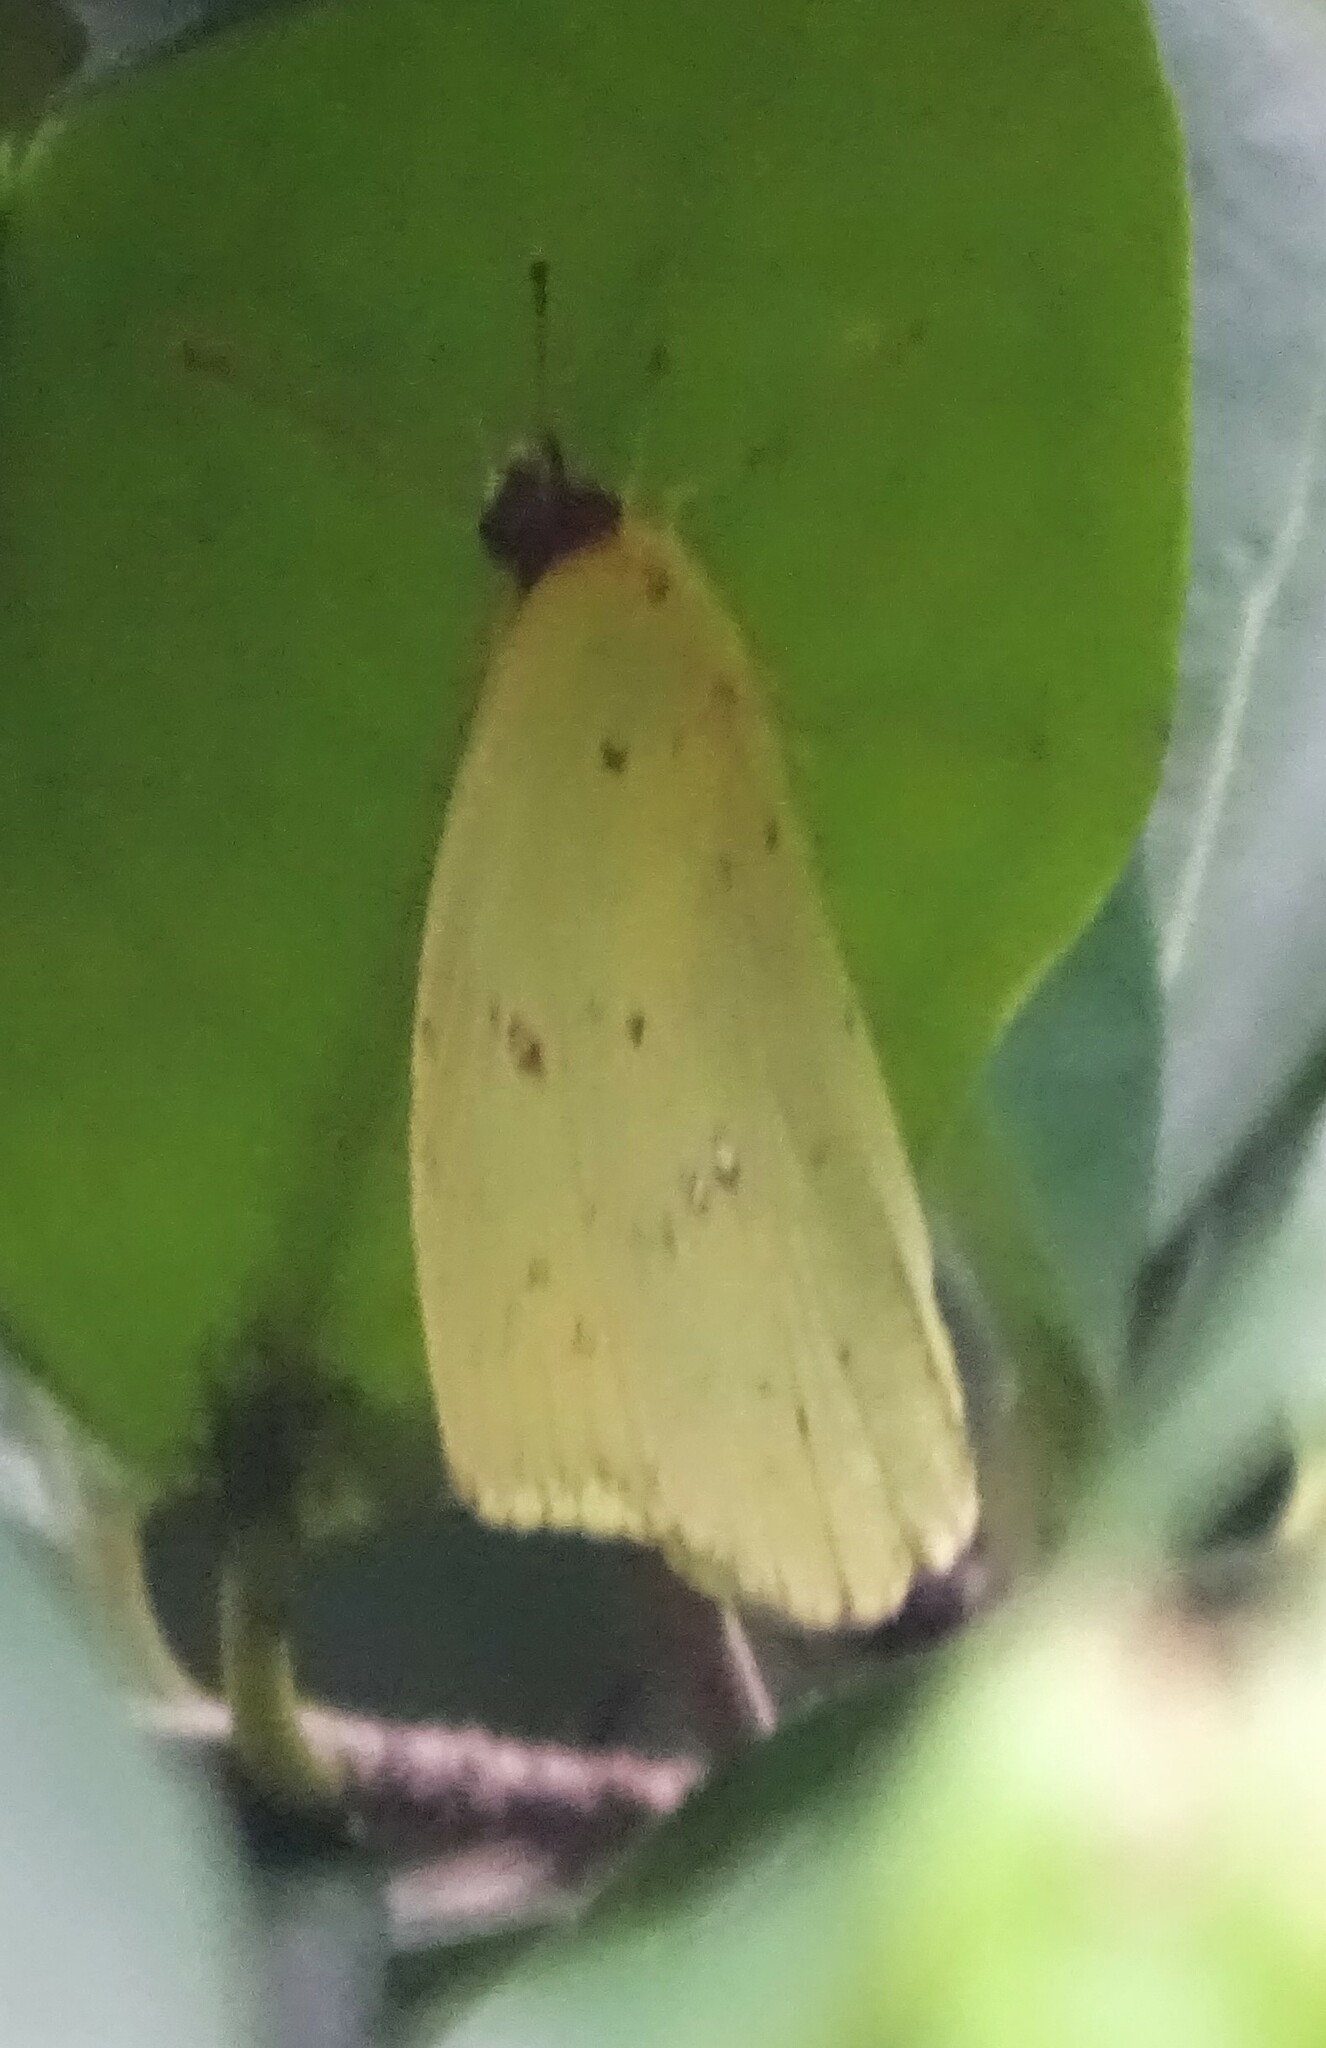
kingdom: Animalia
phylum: Arthropoda
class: Insecta
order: Lepidoptera
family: Pieridae
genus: Phoebis
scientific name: Phoebis sennae
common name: Cloudless sulphur
